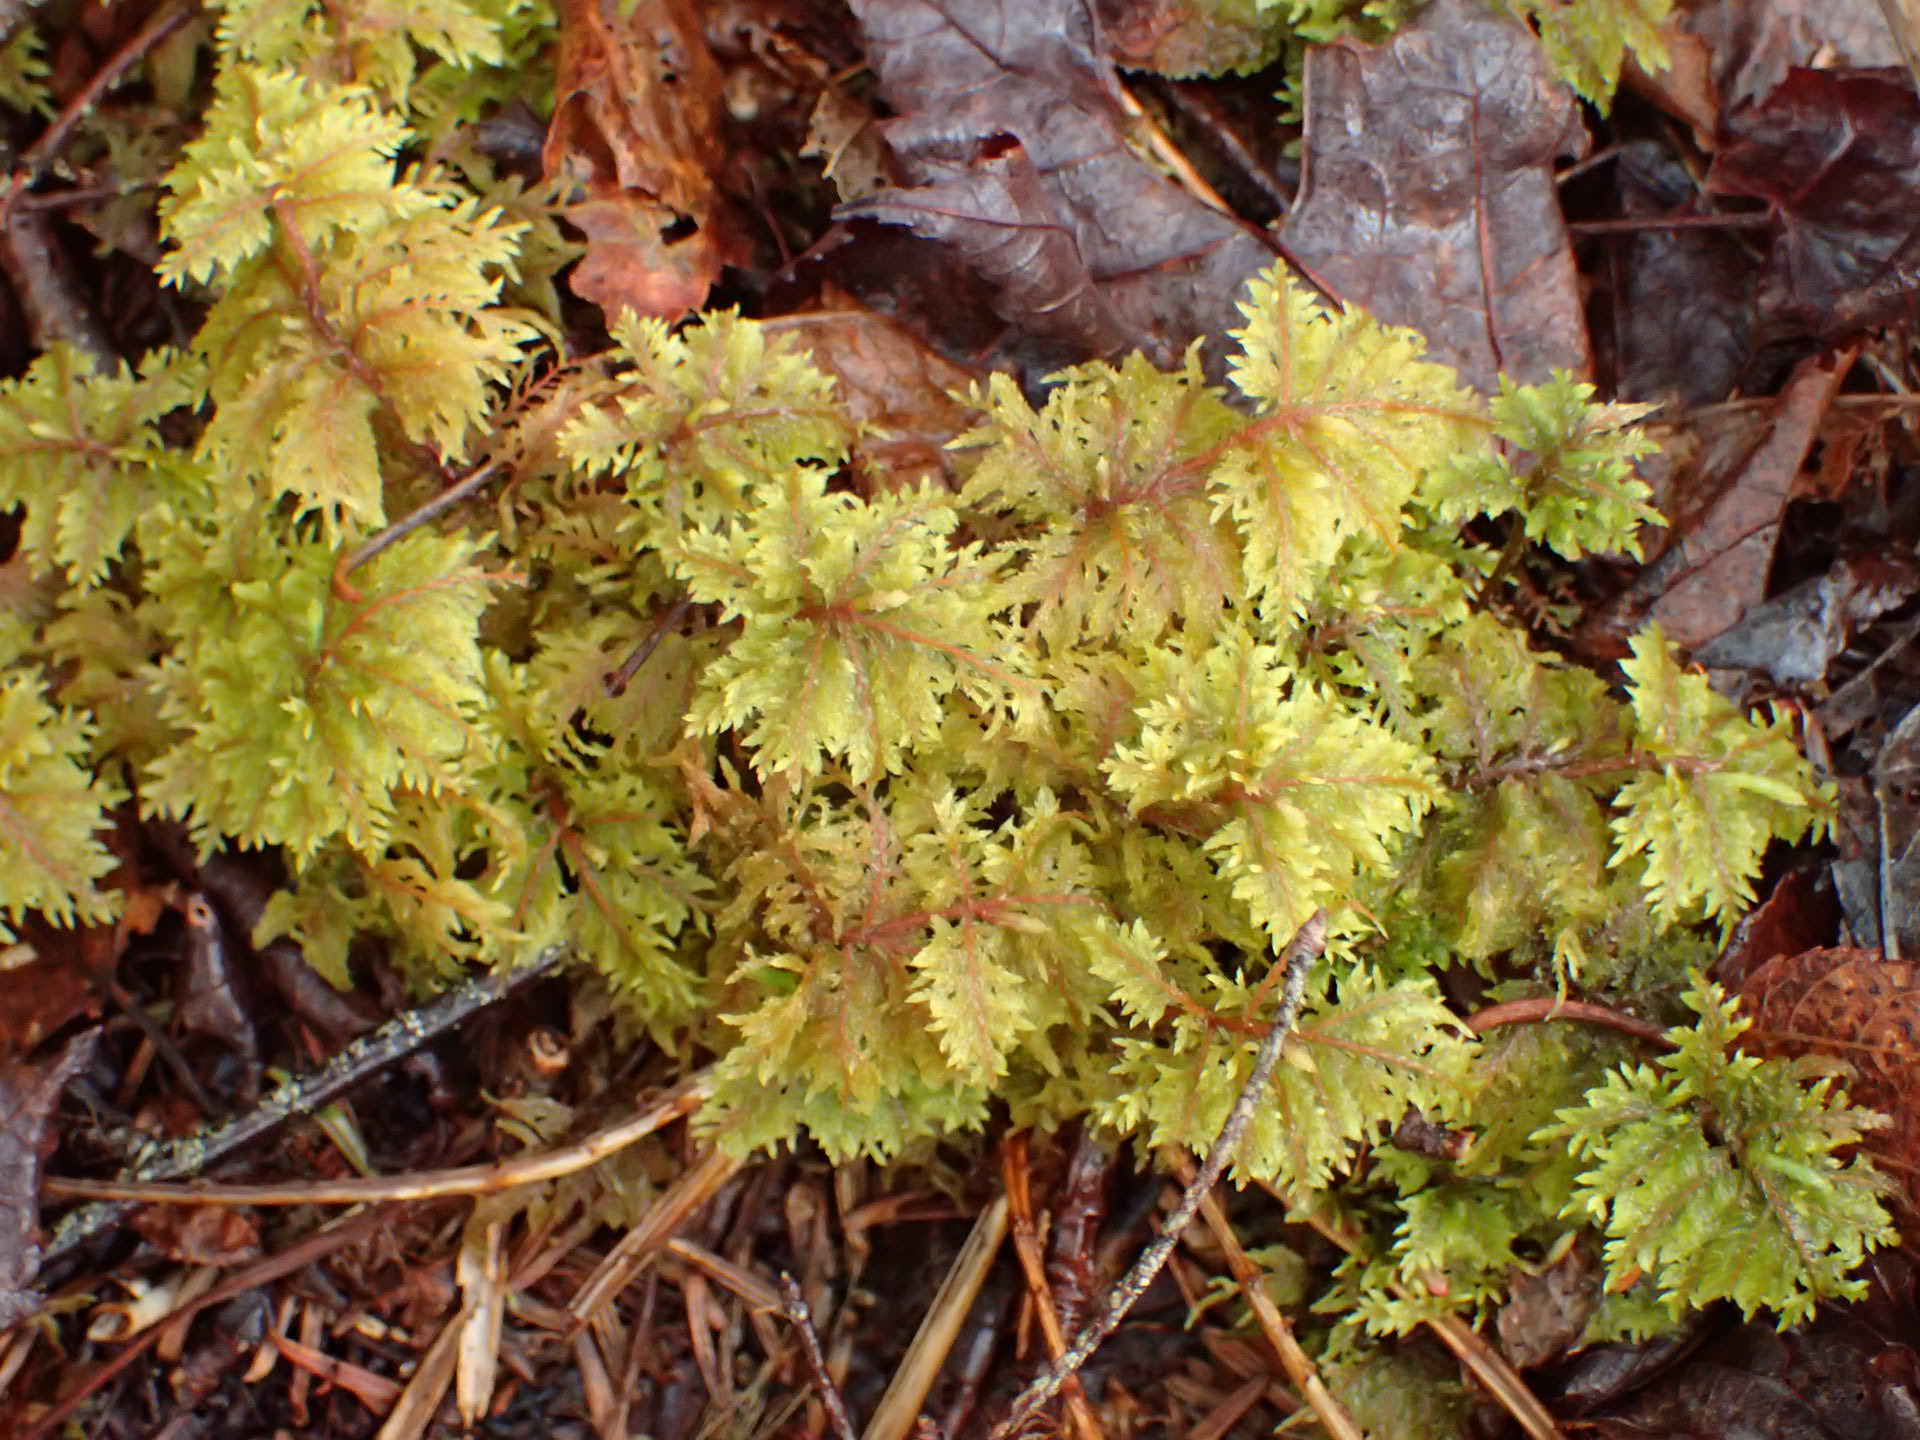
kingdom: Plantae
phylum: Bryophyta
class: Bryopsida
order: Hypnales
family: Hylocomiaceae
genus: Hylocomium
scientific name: Hylocomium splendens
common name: Stairstep moss
